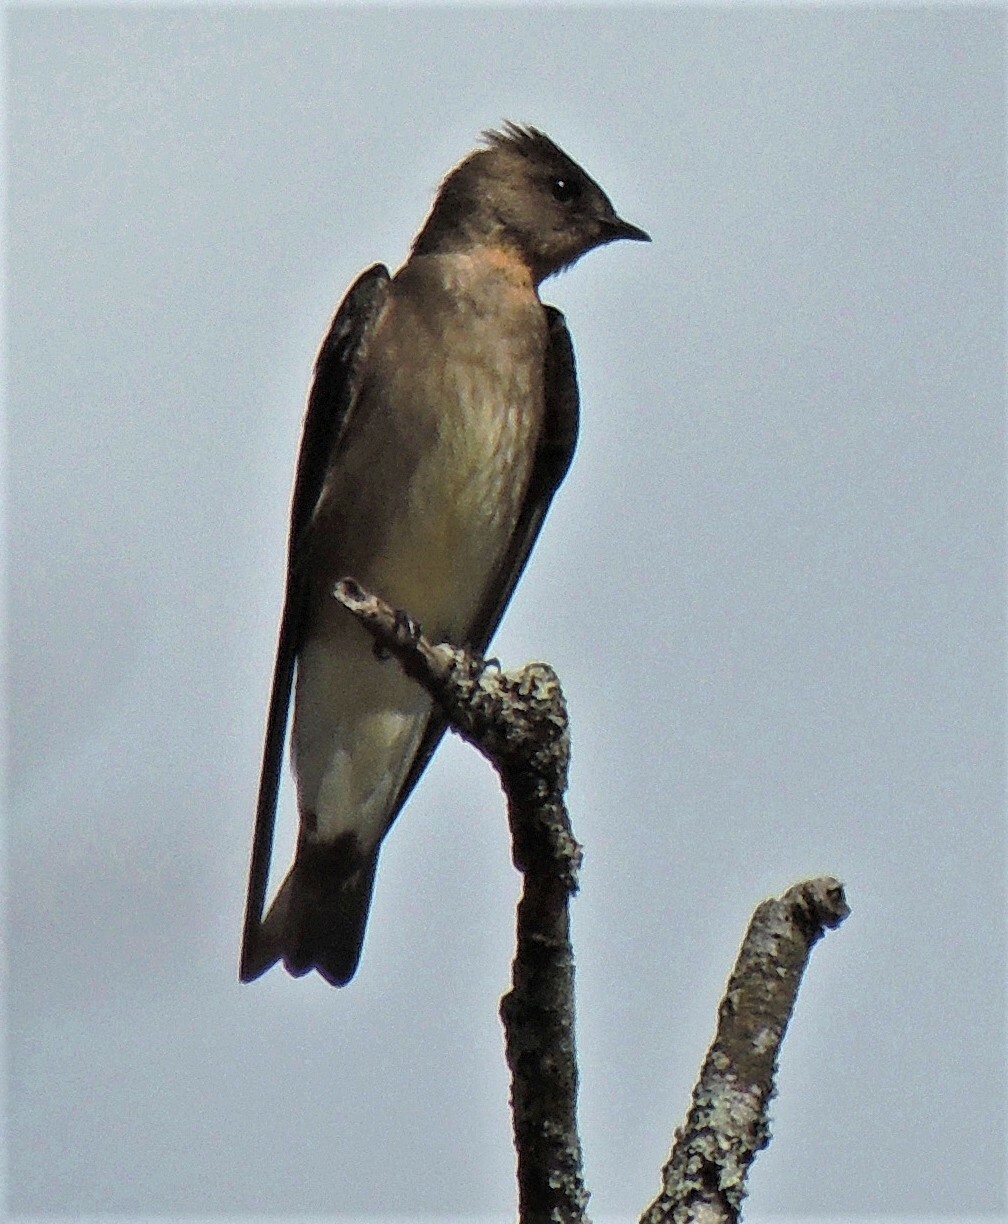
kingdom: Animalia
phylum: Chordata
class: Aves
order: Passeriformes
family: Hirundinidae
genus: Stelgidopteryx
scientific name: Stelgidopteryx ruficollis
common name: Southern rough-winged swallow
